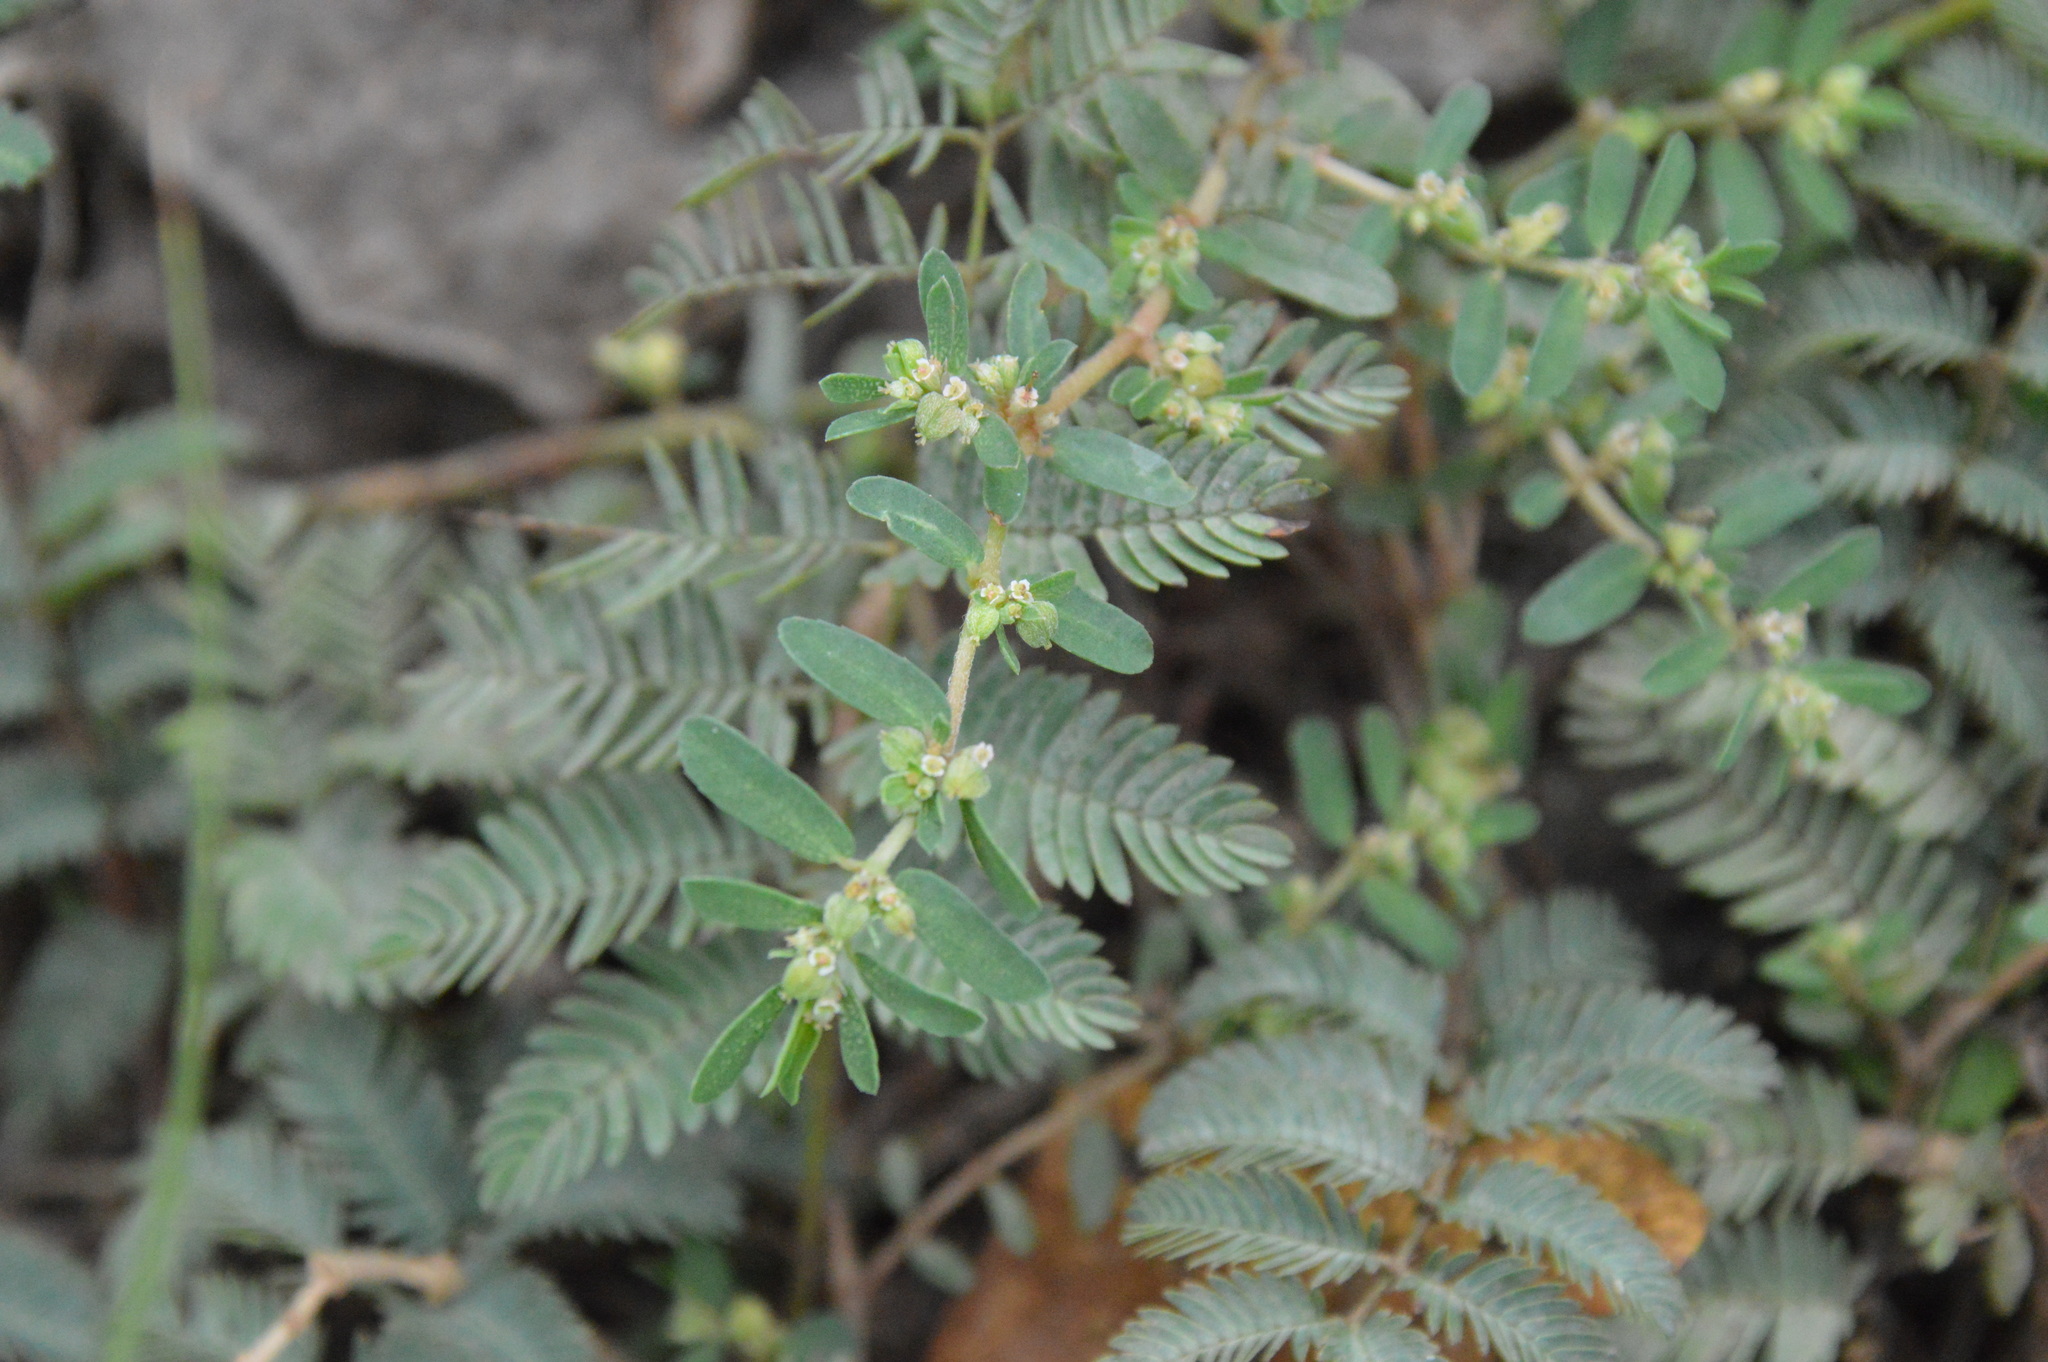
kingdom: Plantae
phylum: Tracheophyta
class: Magnoliopsida
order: Malpighiales
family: Euphorbiaceae
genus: Euphorbia
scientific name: Euphorbia maculata
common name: Spotted spurge
